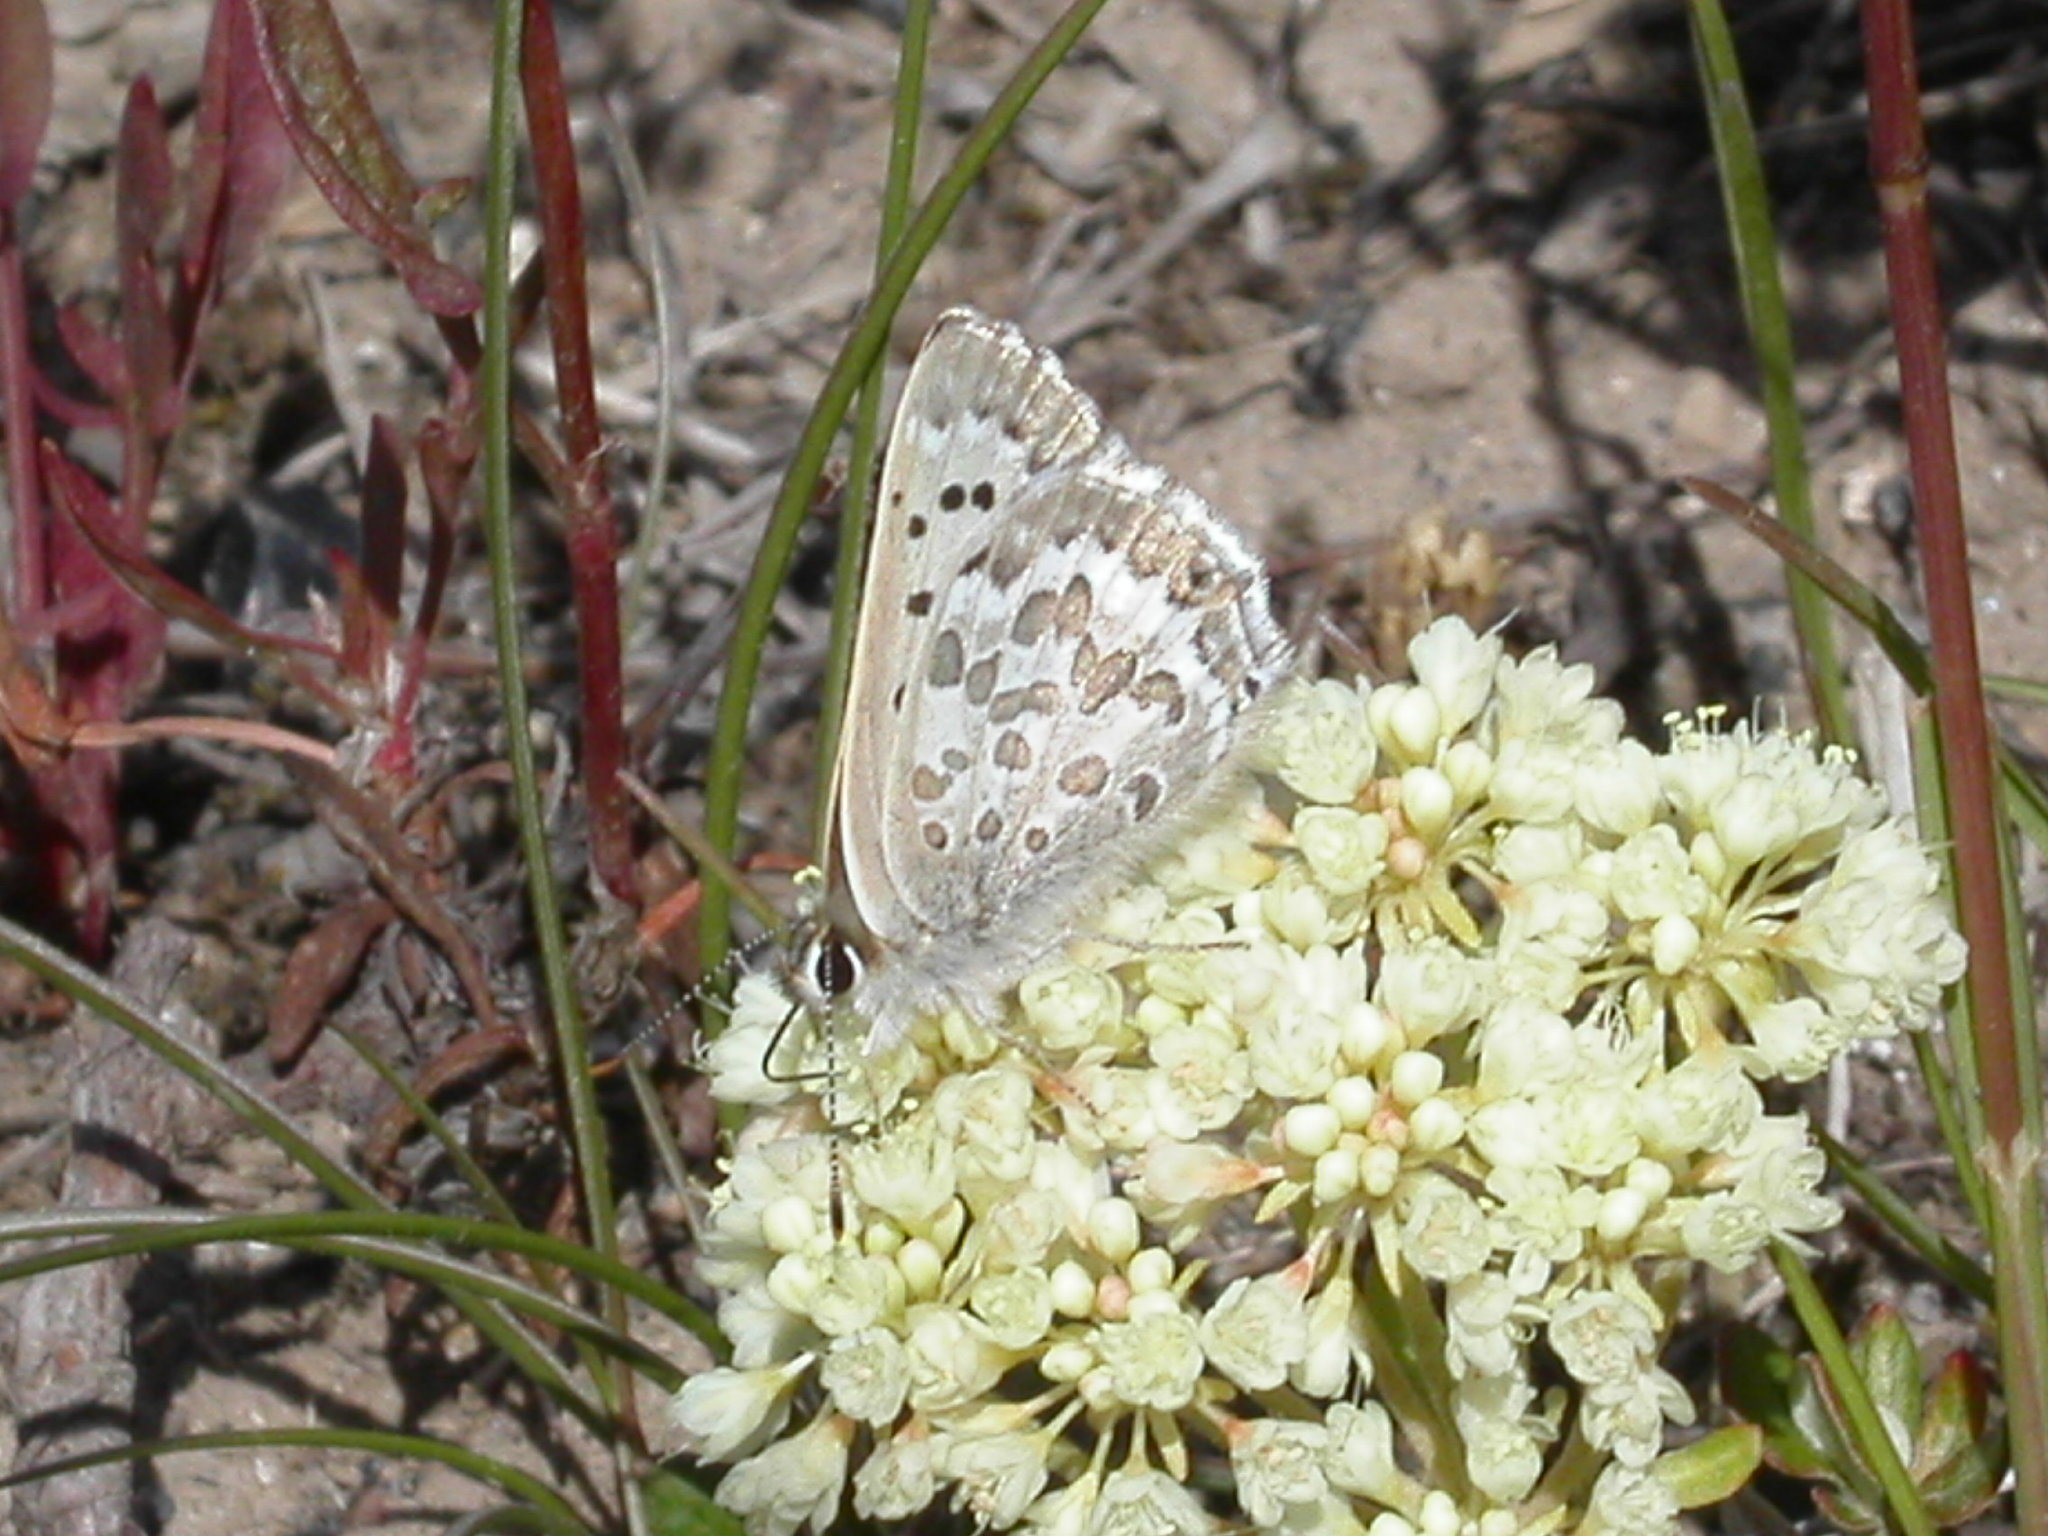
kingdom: Animalia
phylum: Arthropoda
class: Insecta
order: Lepidoptera
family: Lycaenidae
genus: Tharsalea
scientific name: Tharsalea editha
